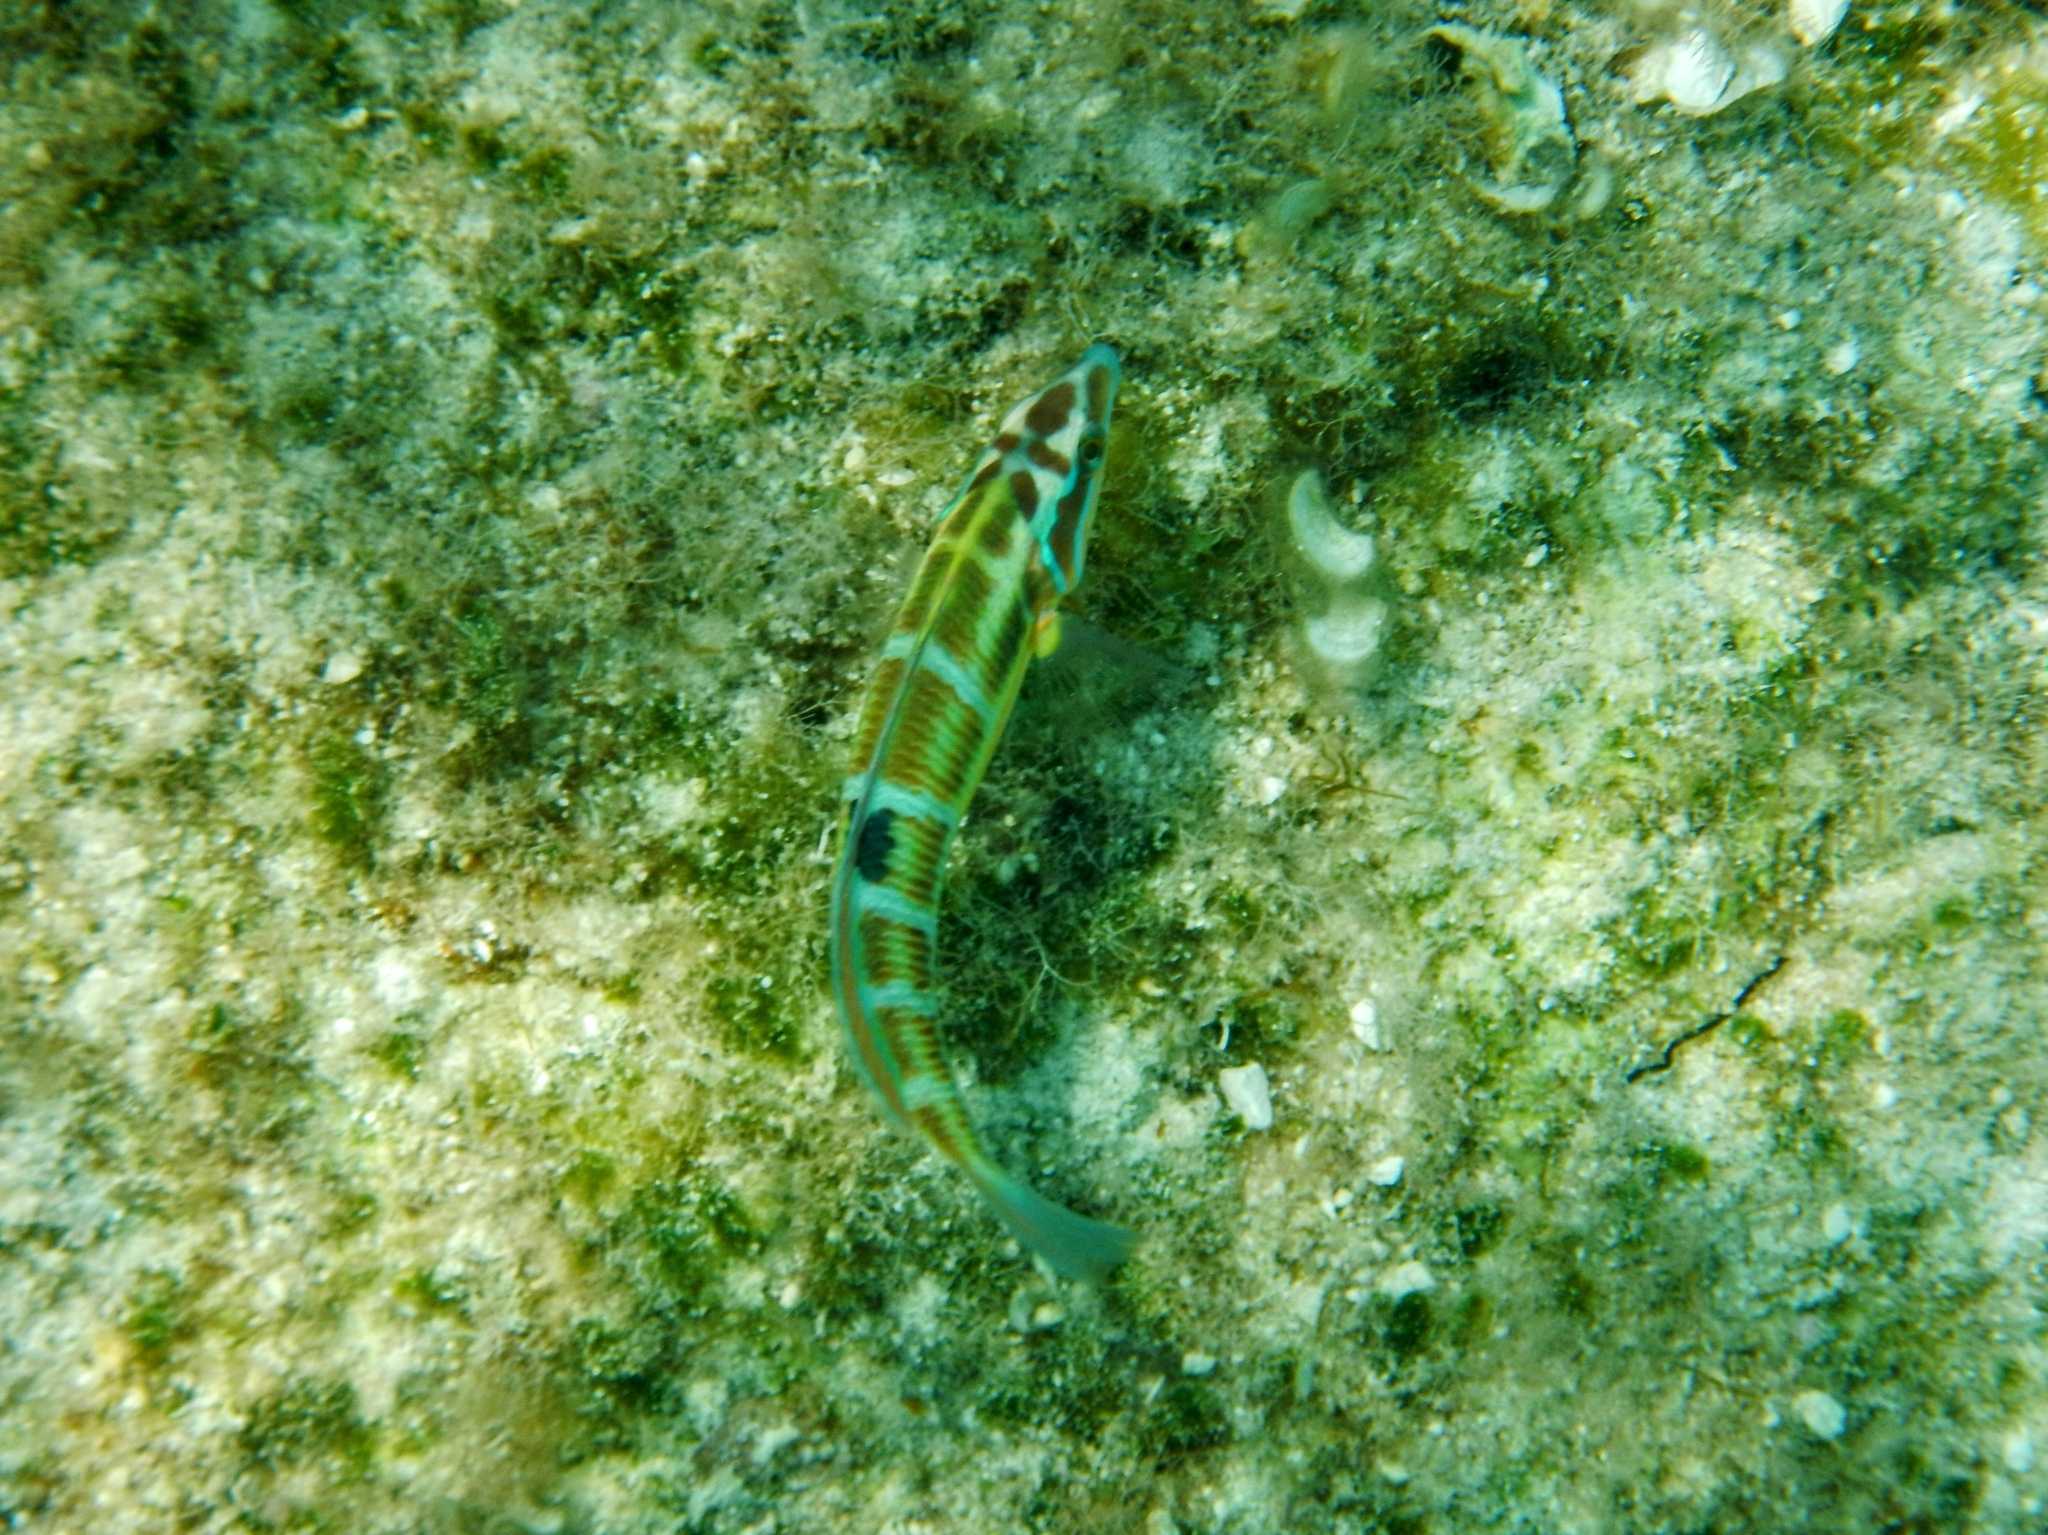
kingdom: Animalia
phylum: Chordata
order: Perciformes
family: Labridae
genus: Thalassoma
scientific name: Thalassoma pavo
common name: Ornate wrasse
